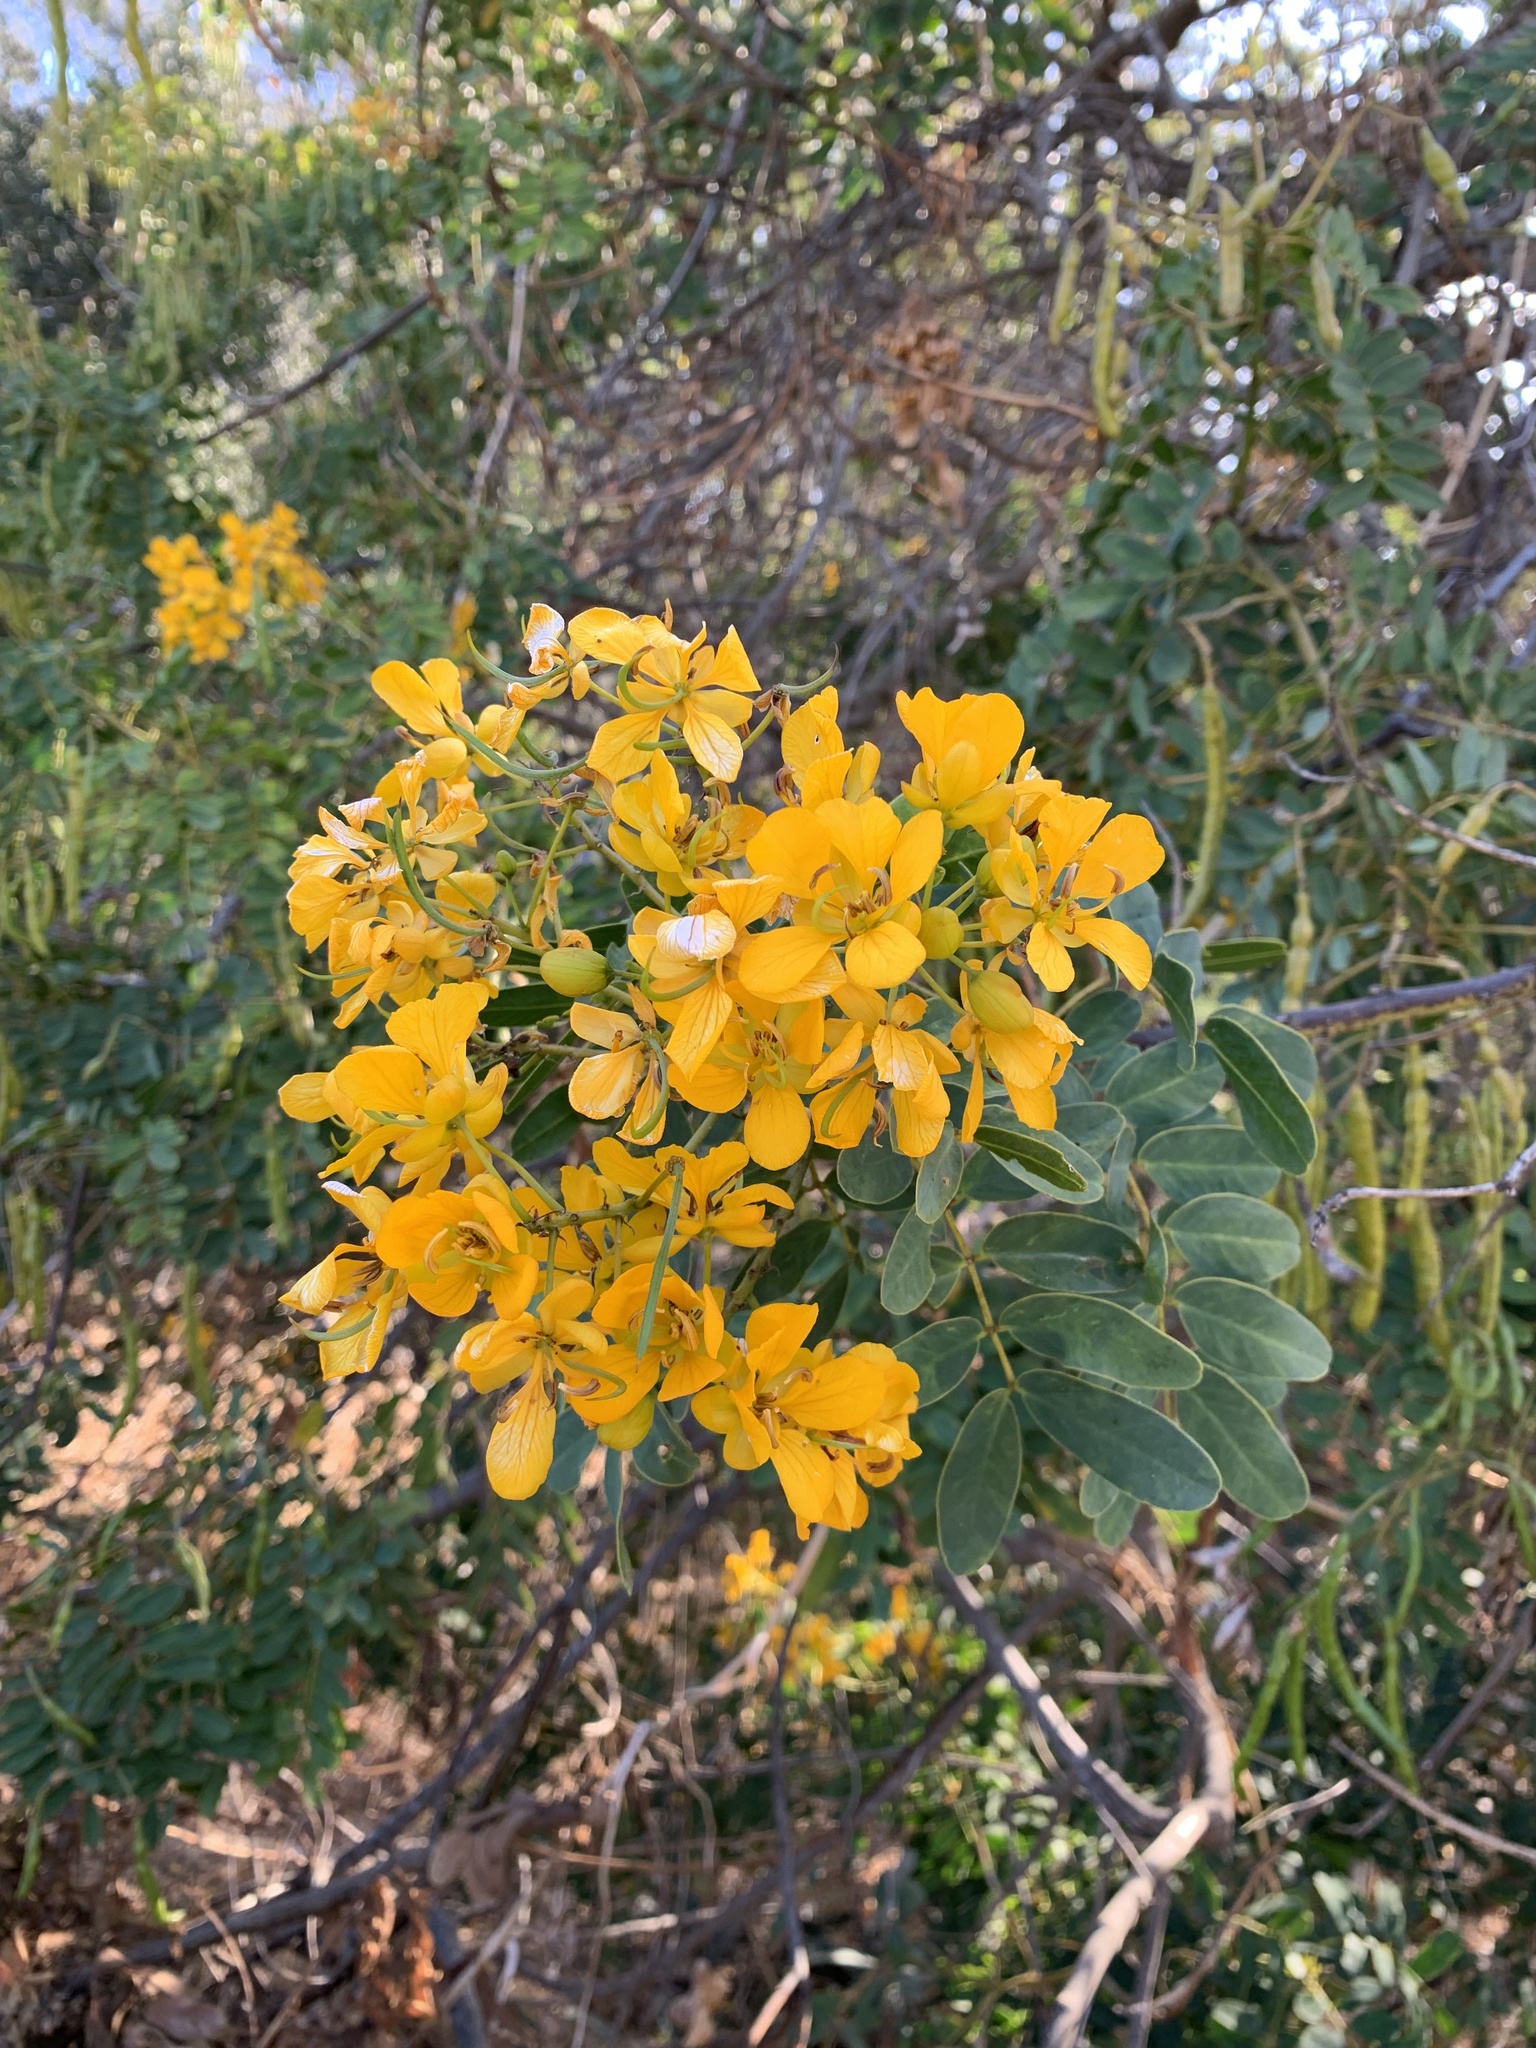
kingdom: Plantae
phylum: Tracheophyta
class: Magnoliopsida
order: Fabales
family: Fabaceae
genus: Senna
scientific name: Senna candolleana
